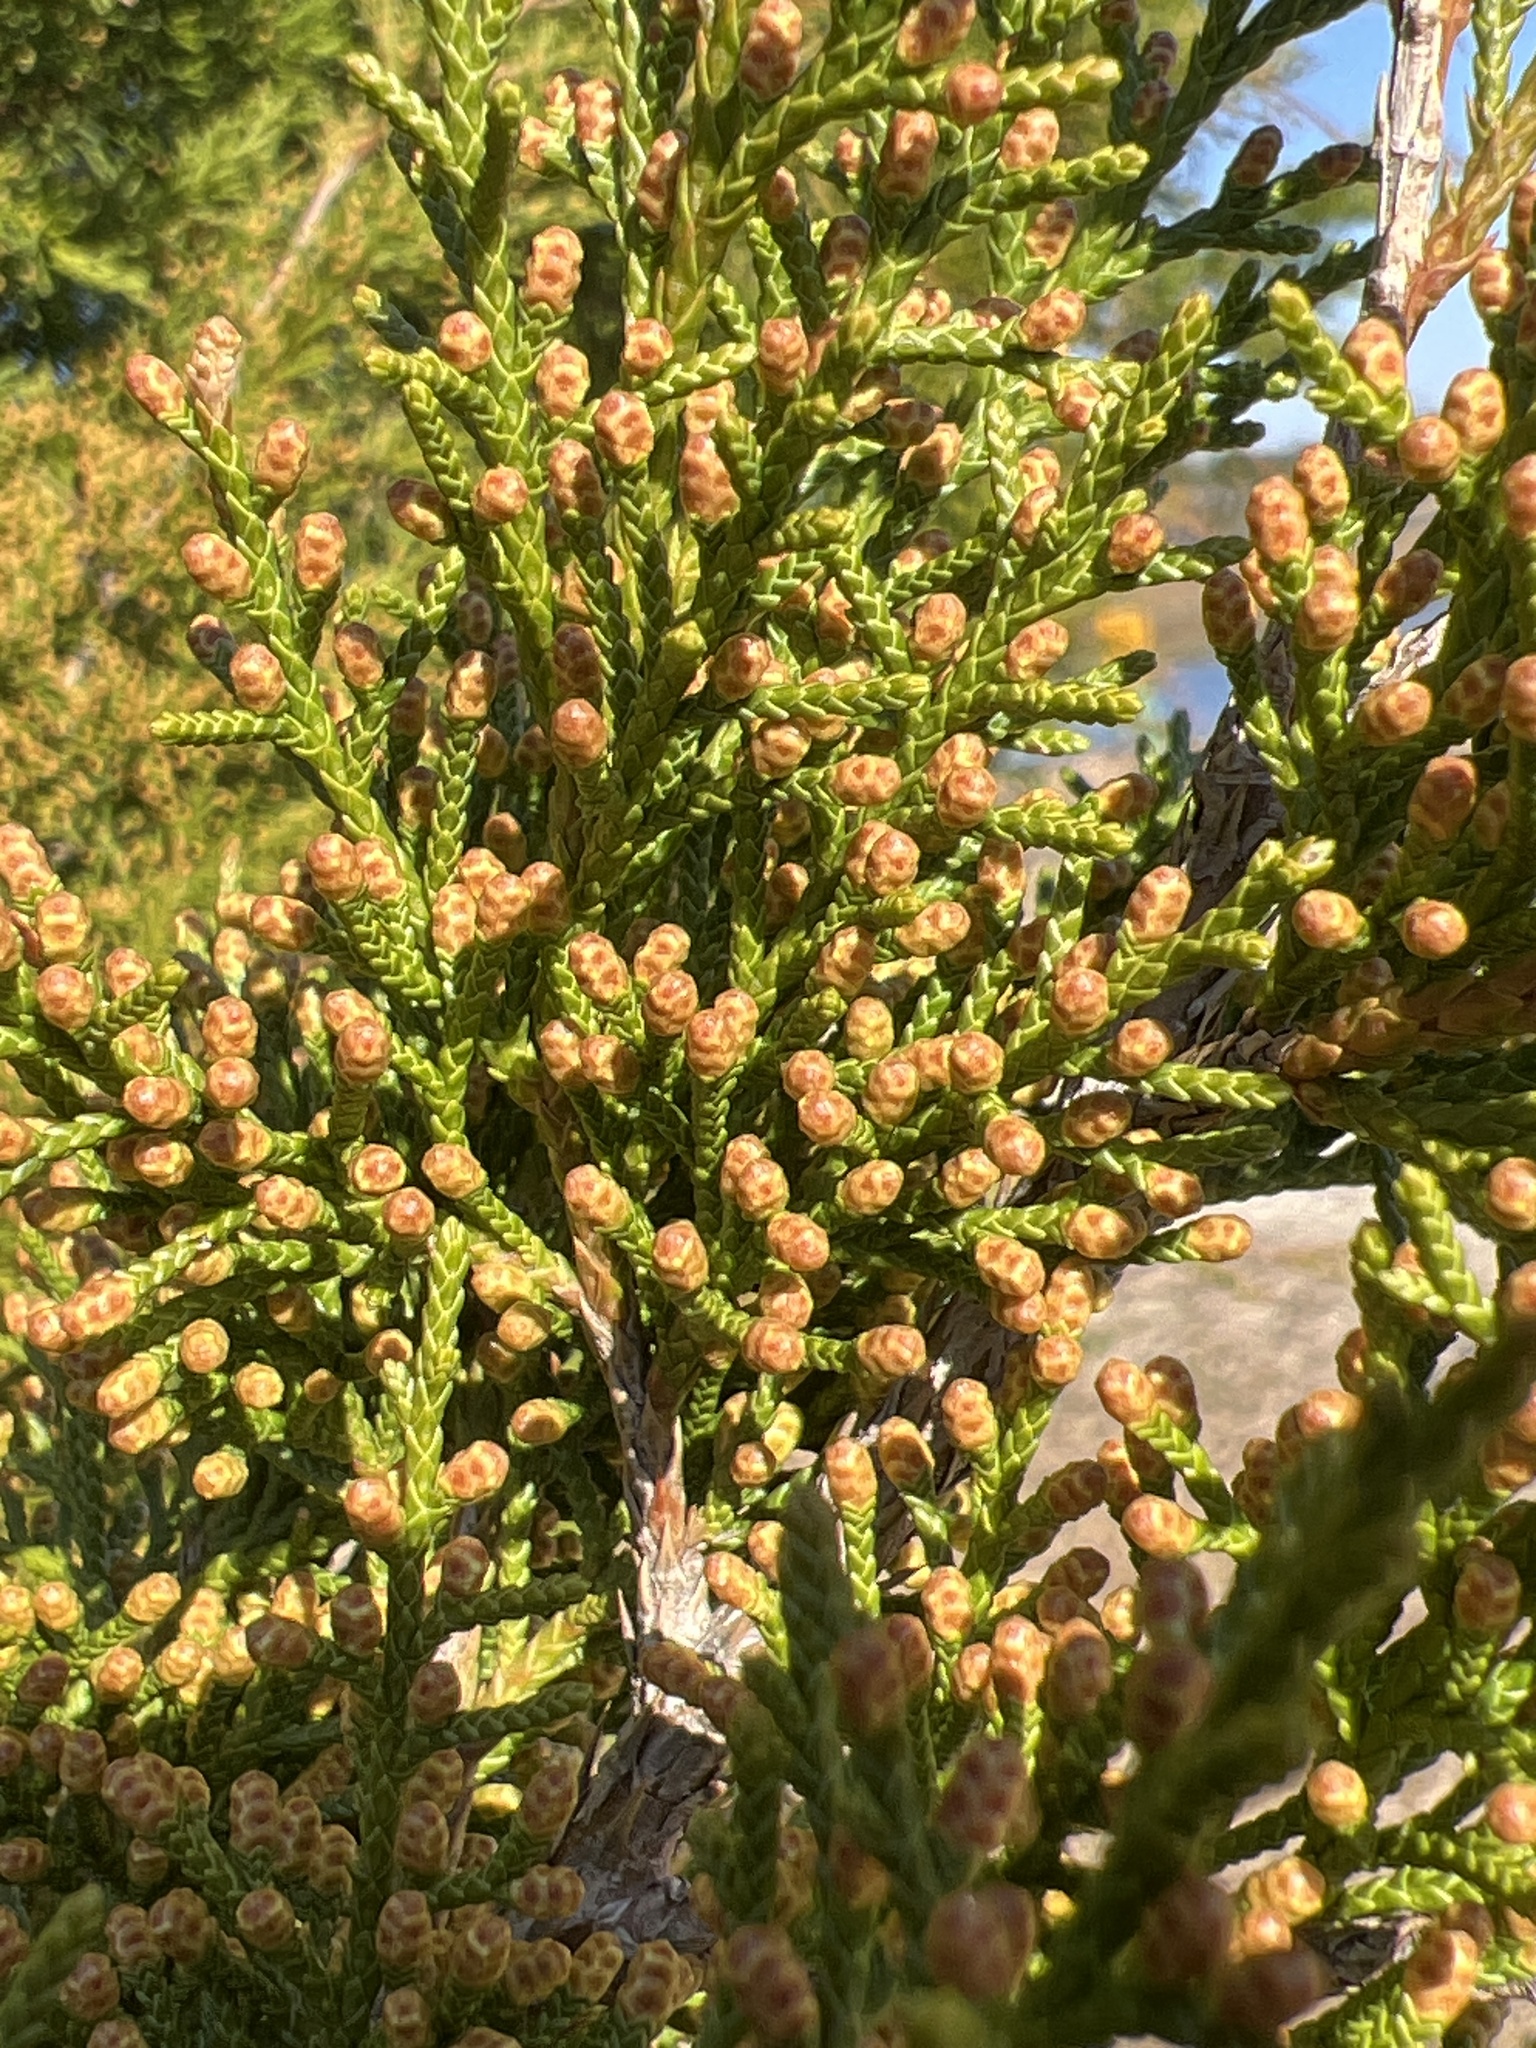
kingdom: Plantae
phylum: Tracheophyta
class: Pinopsida
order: Pinales
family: Cupressaceae
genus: Juniperus
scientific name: Juniperus virginiana
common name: Red juniper
